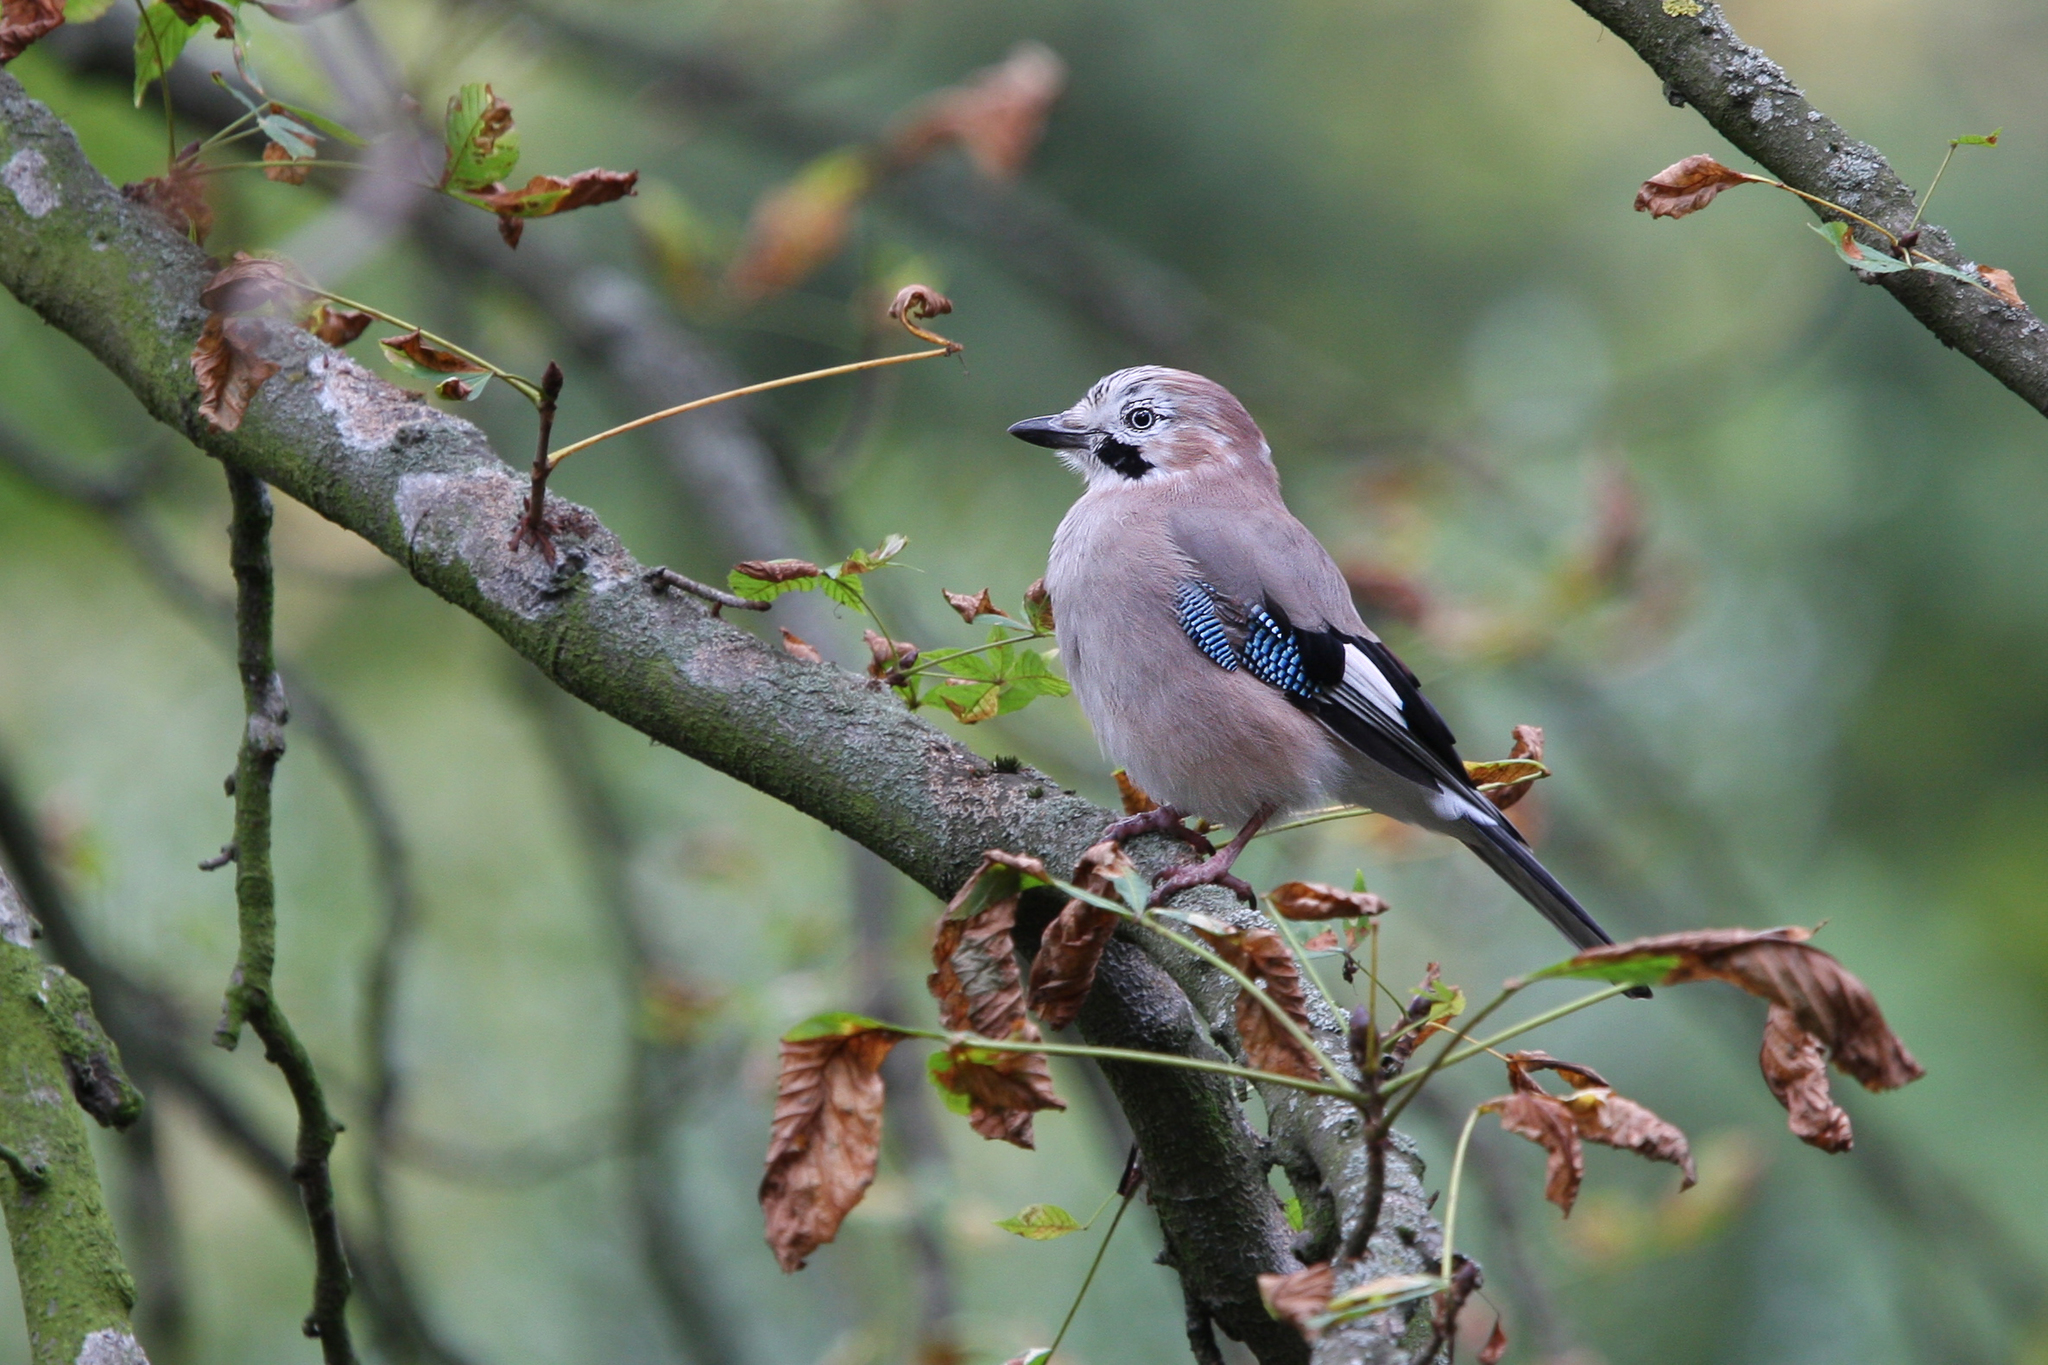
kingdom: Animalia
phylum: Chordata
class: Aves
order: Passeriformes
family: Corvidae
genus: Garrulus
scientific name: Garrulus glandarius
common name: Eurasian jay
